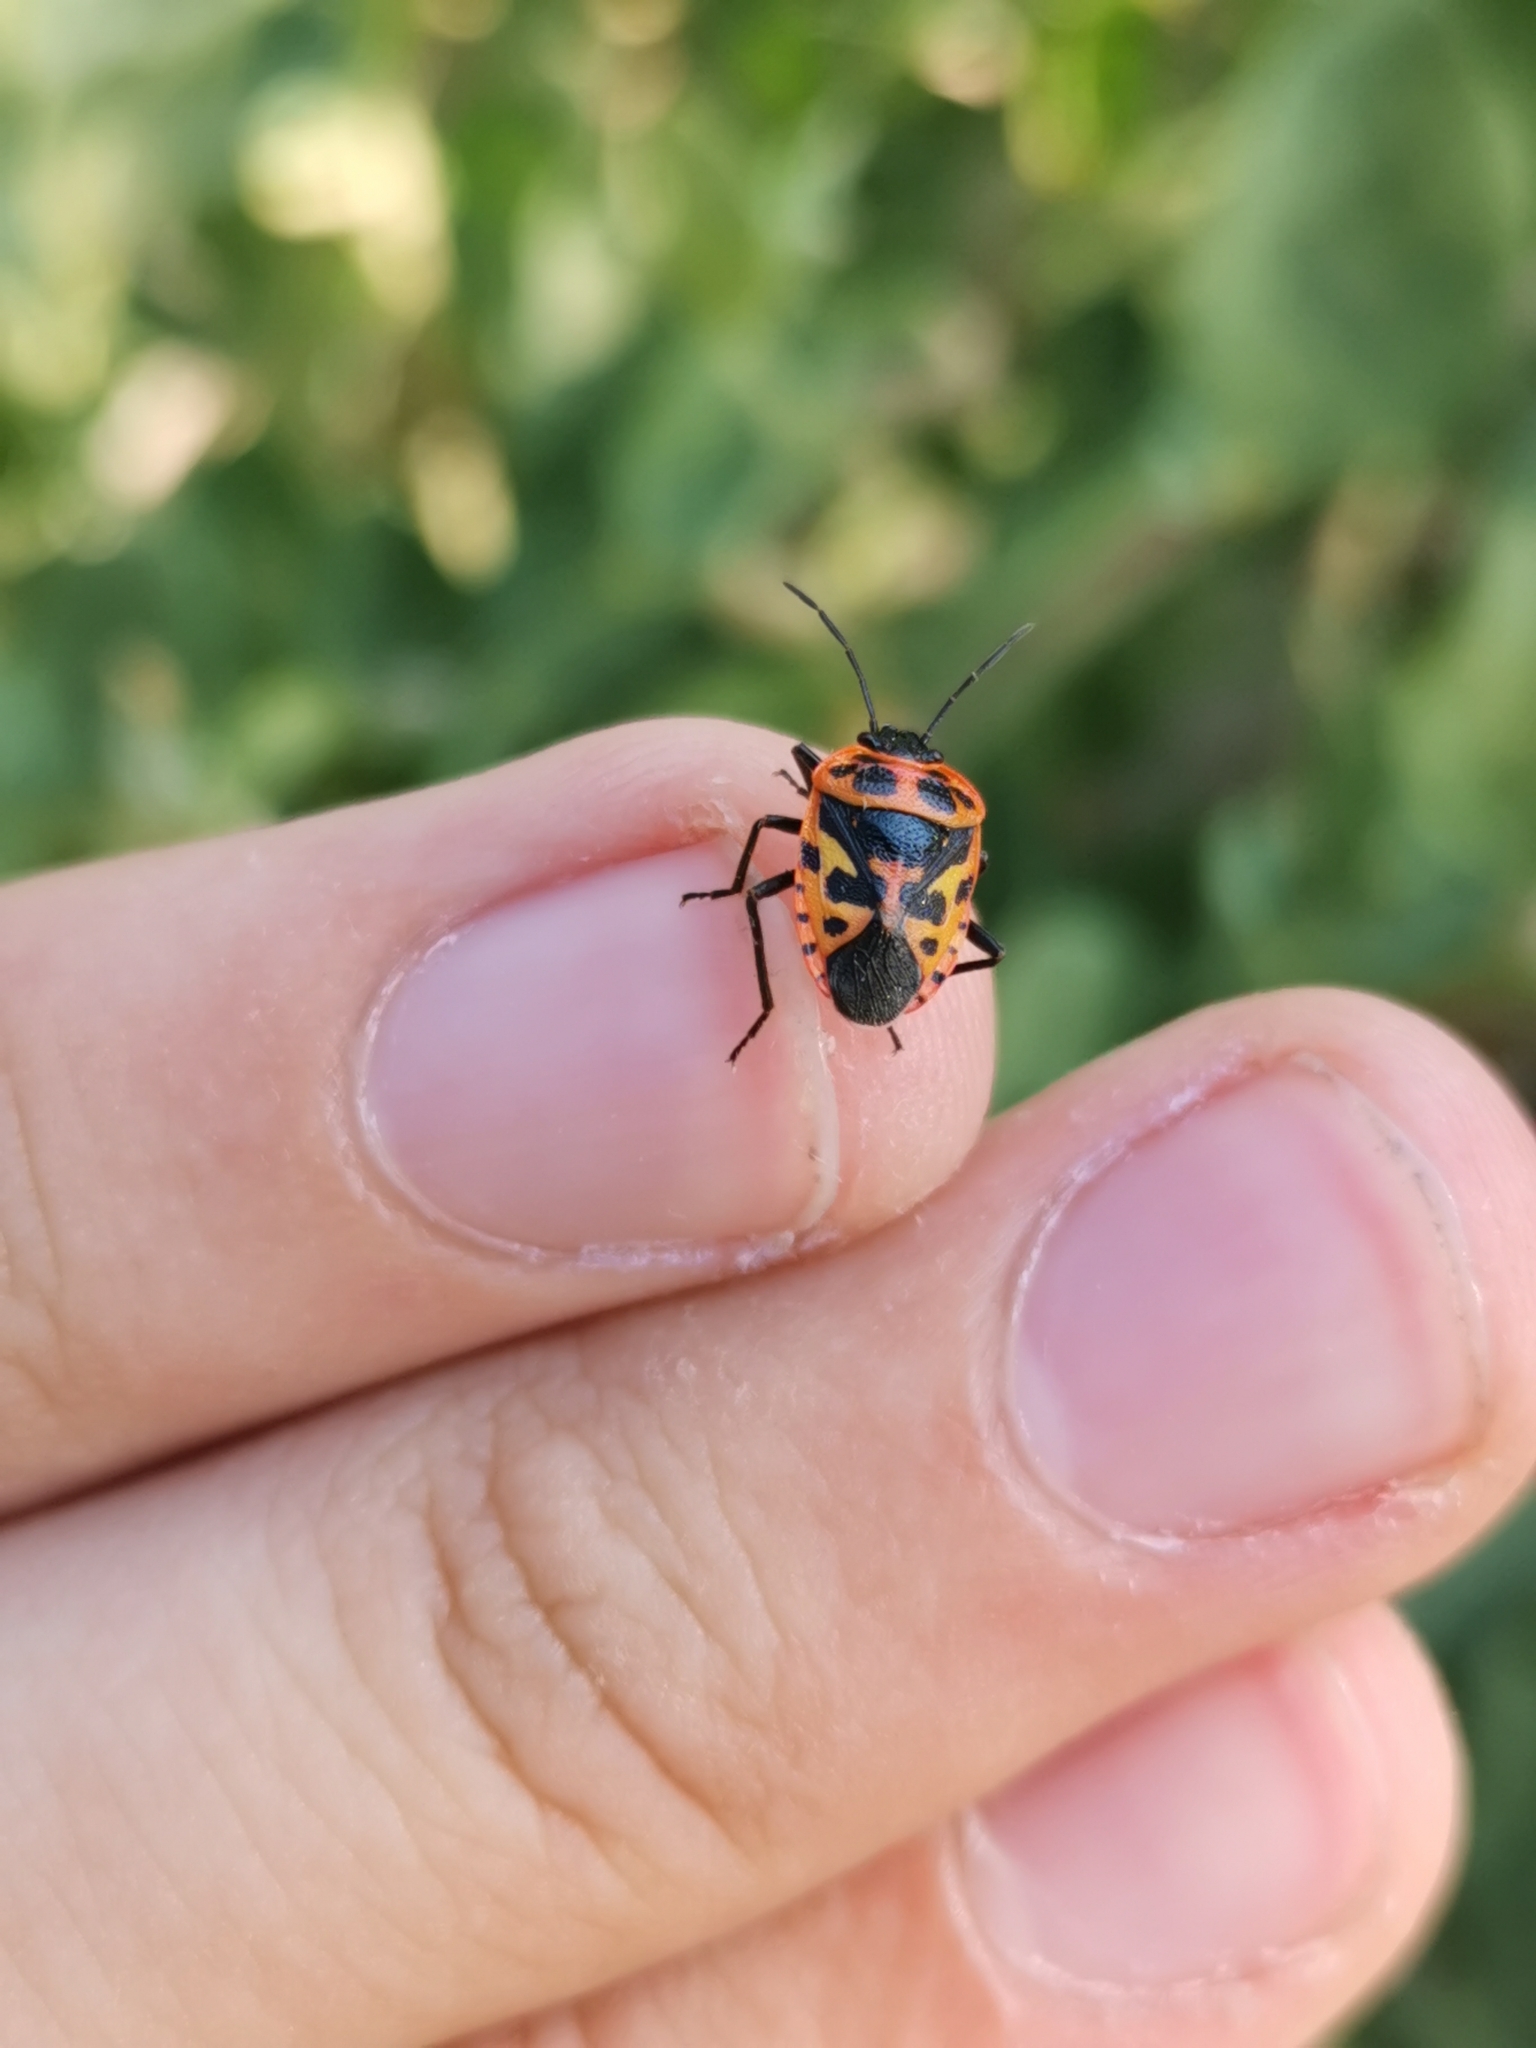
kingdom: Animalia
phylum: Arthropoda
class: Insecta
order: Hemiptera
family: Pentatomidae
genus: Eurydema
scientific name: Eurydema eckerleini
